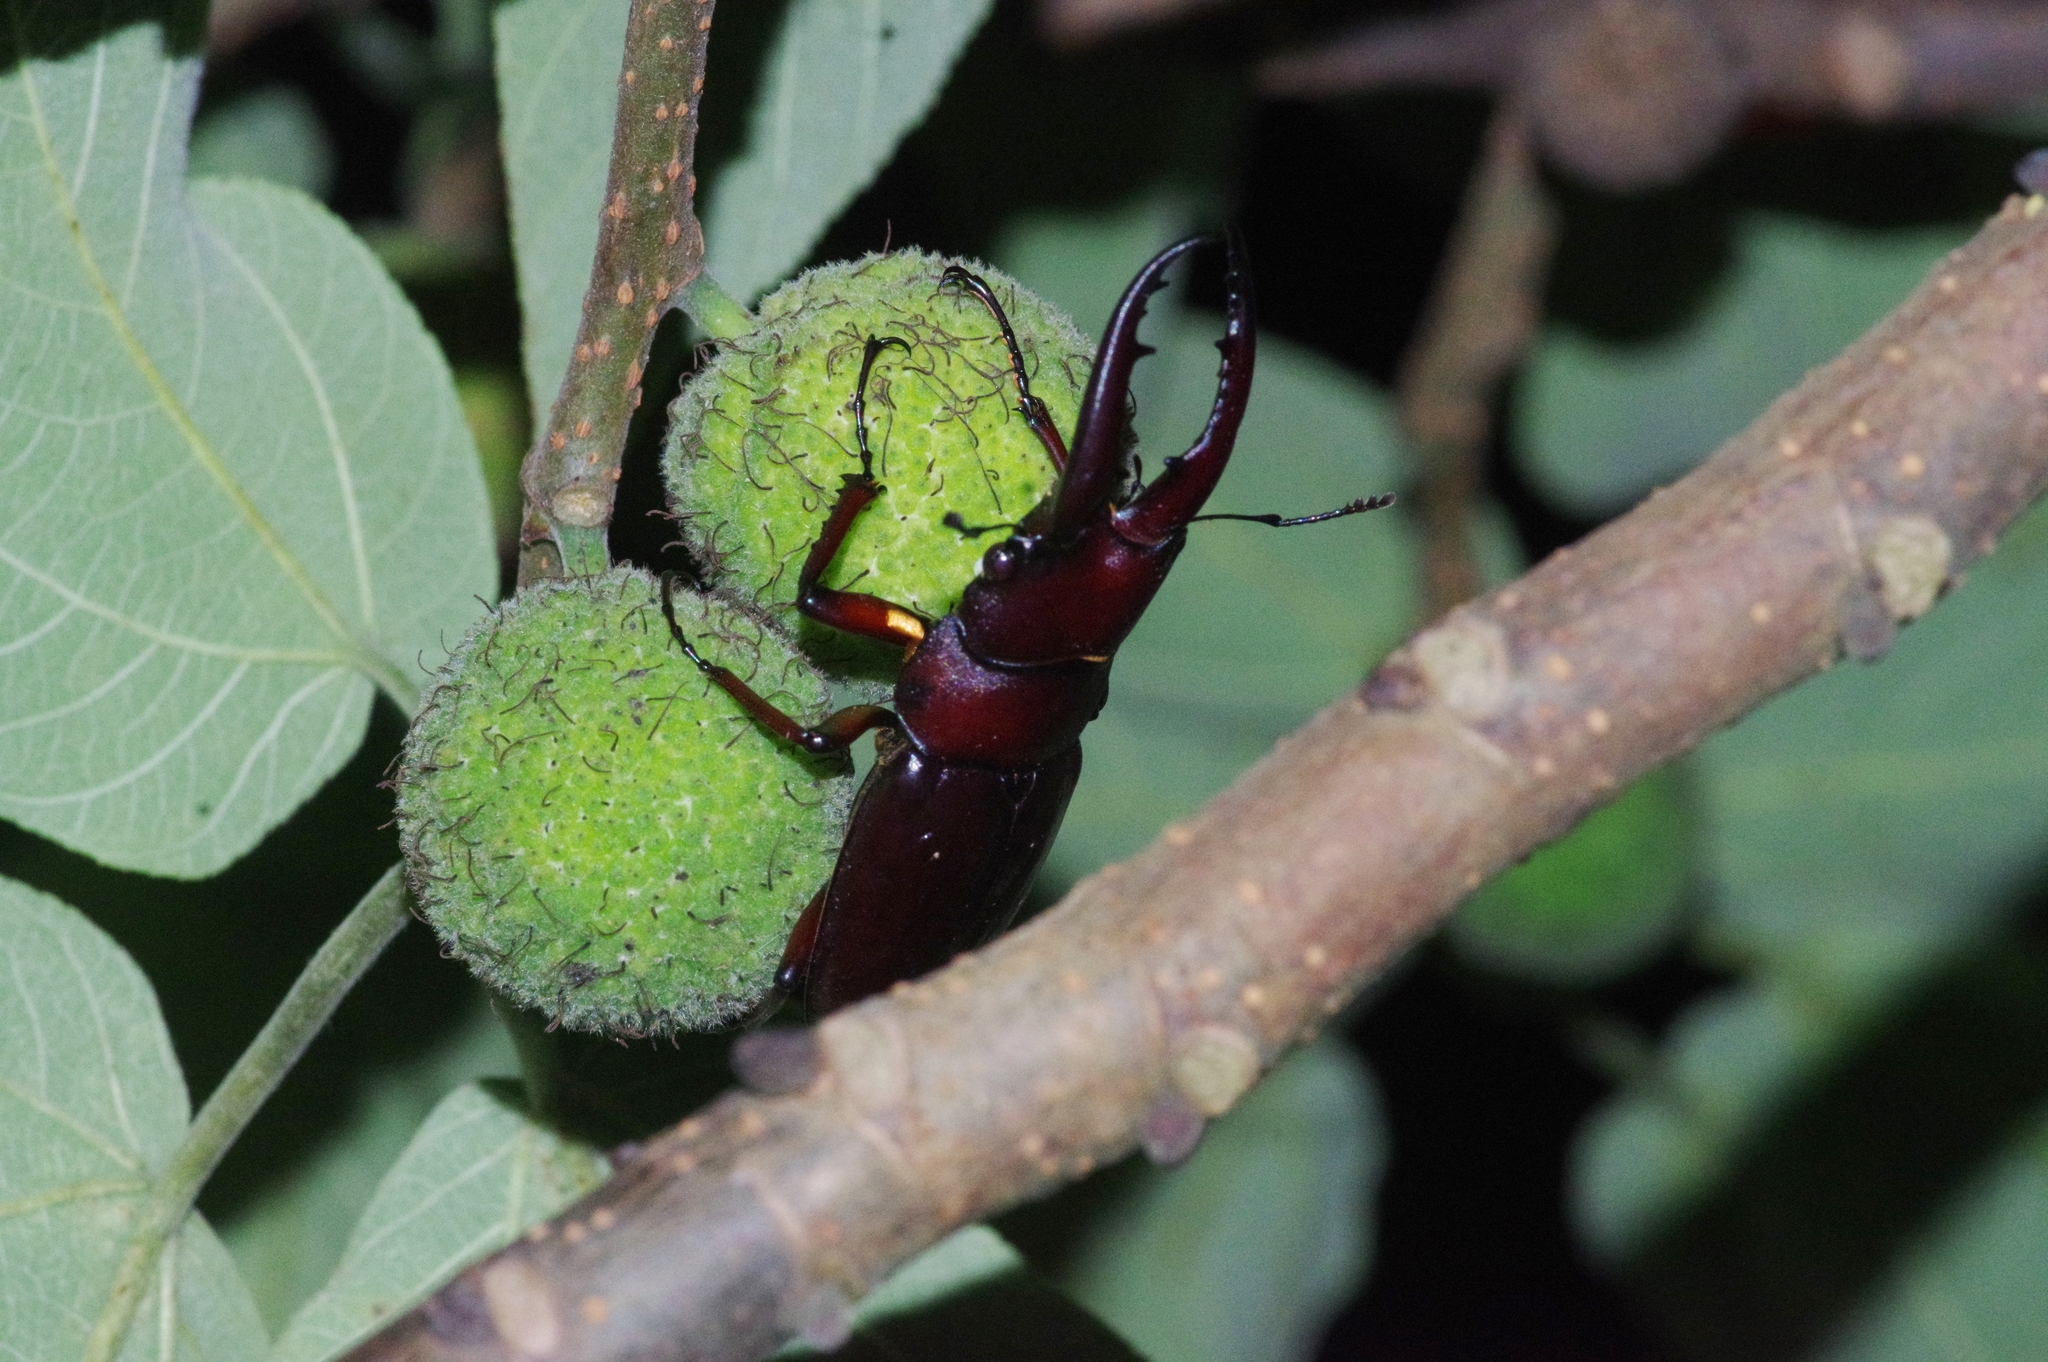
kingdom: Animalia
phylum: Arthropoda
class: Insecta
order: Coleoptera
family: Lucanidae
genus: Prosopocoilus
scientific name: Prosopocoilus dissimilis
